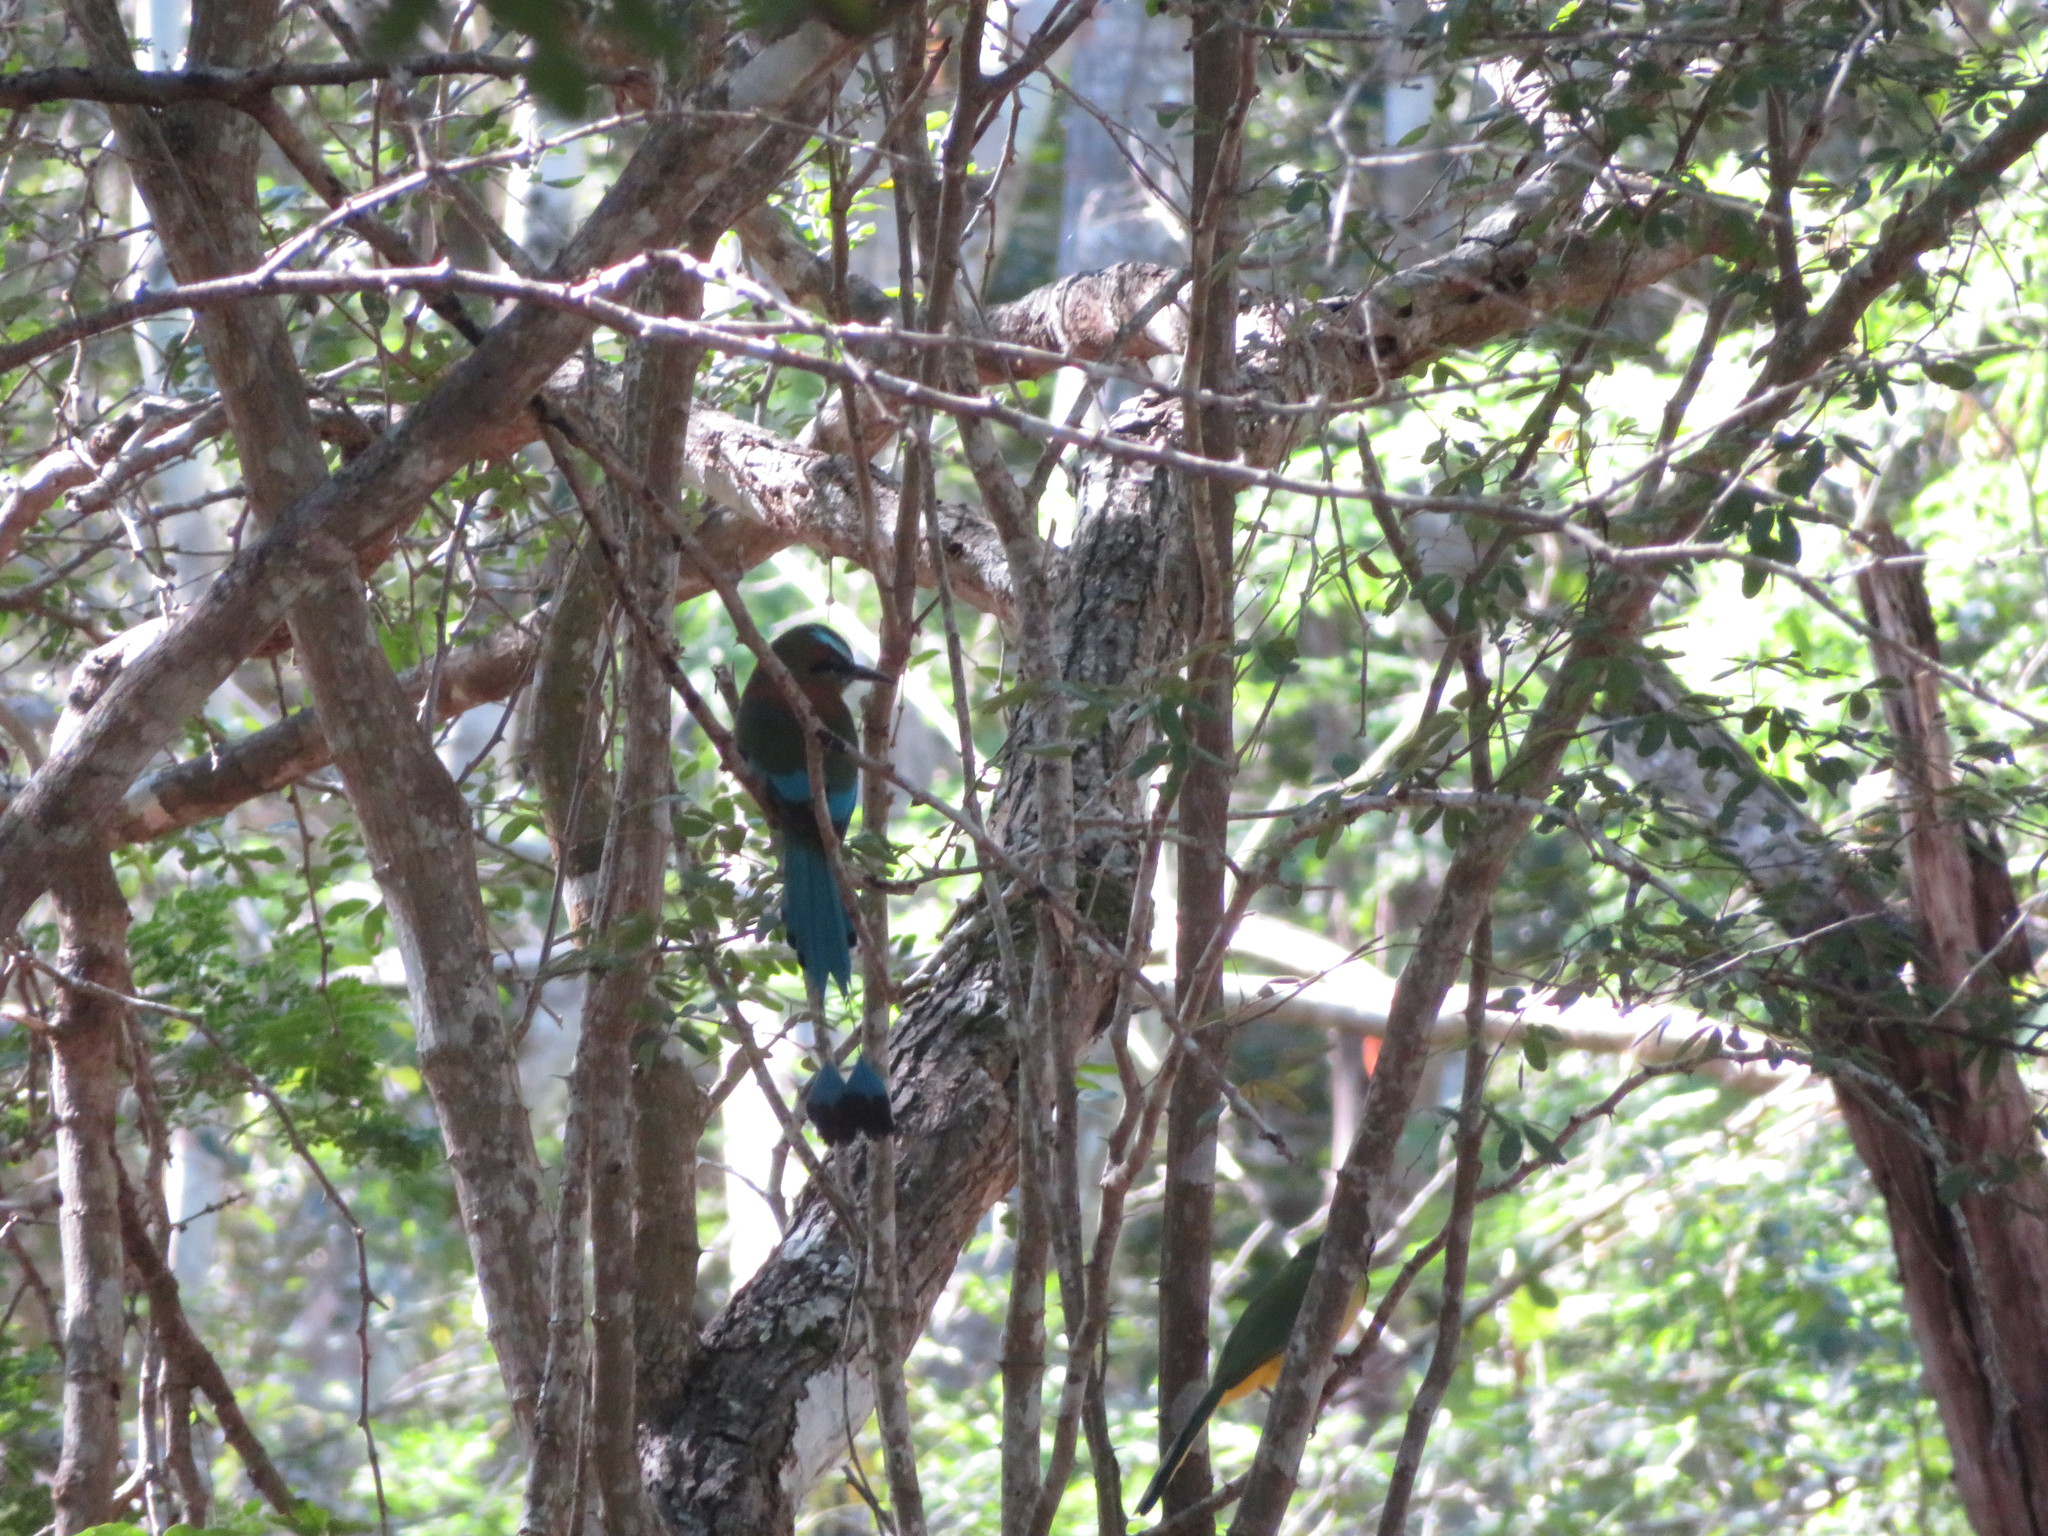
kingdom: Animalia
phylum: Chordata
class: Aves
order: Coraciiformes
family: Momotidae
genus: Eumomota
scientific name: Eumomota superciliosa
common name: Turquoise-browed motmot
